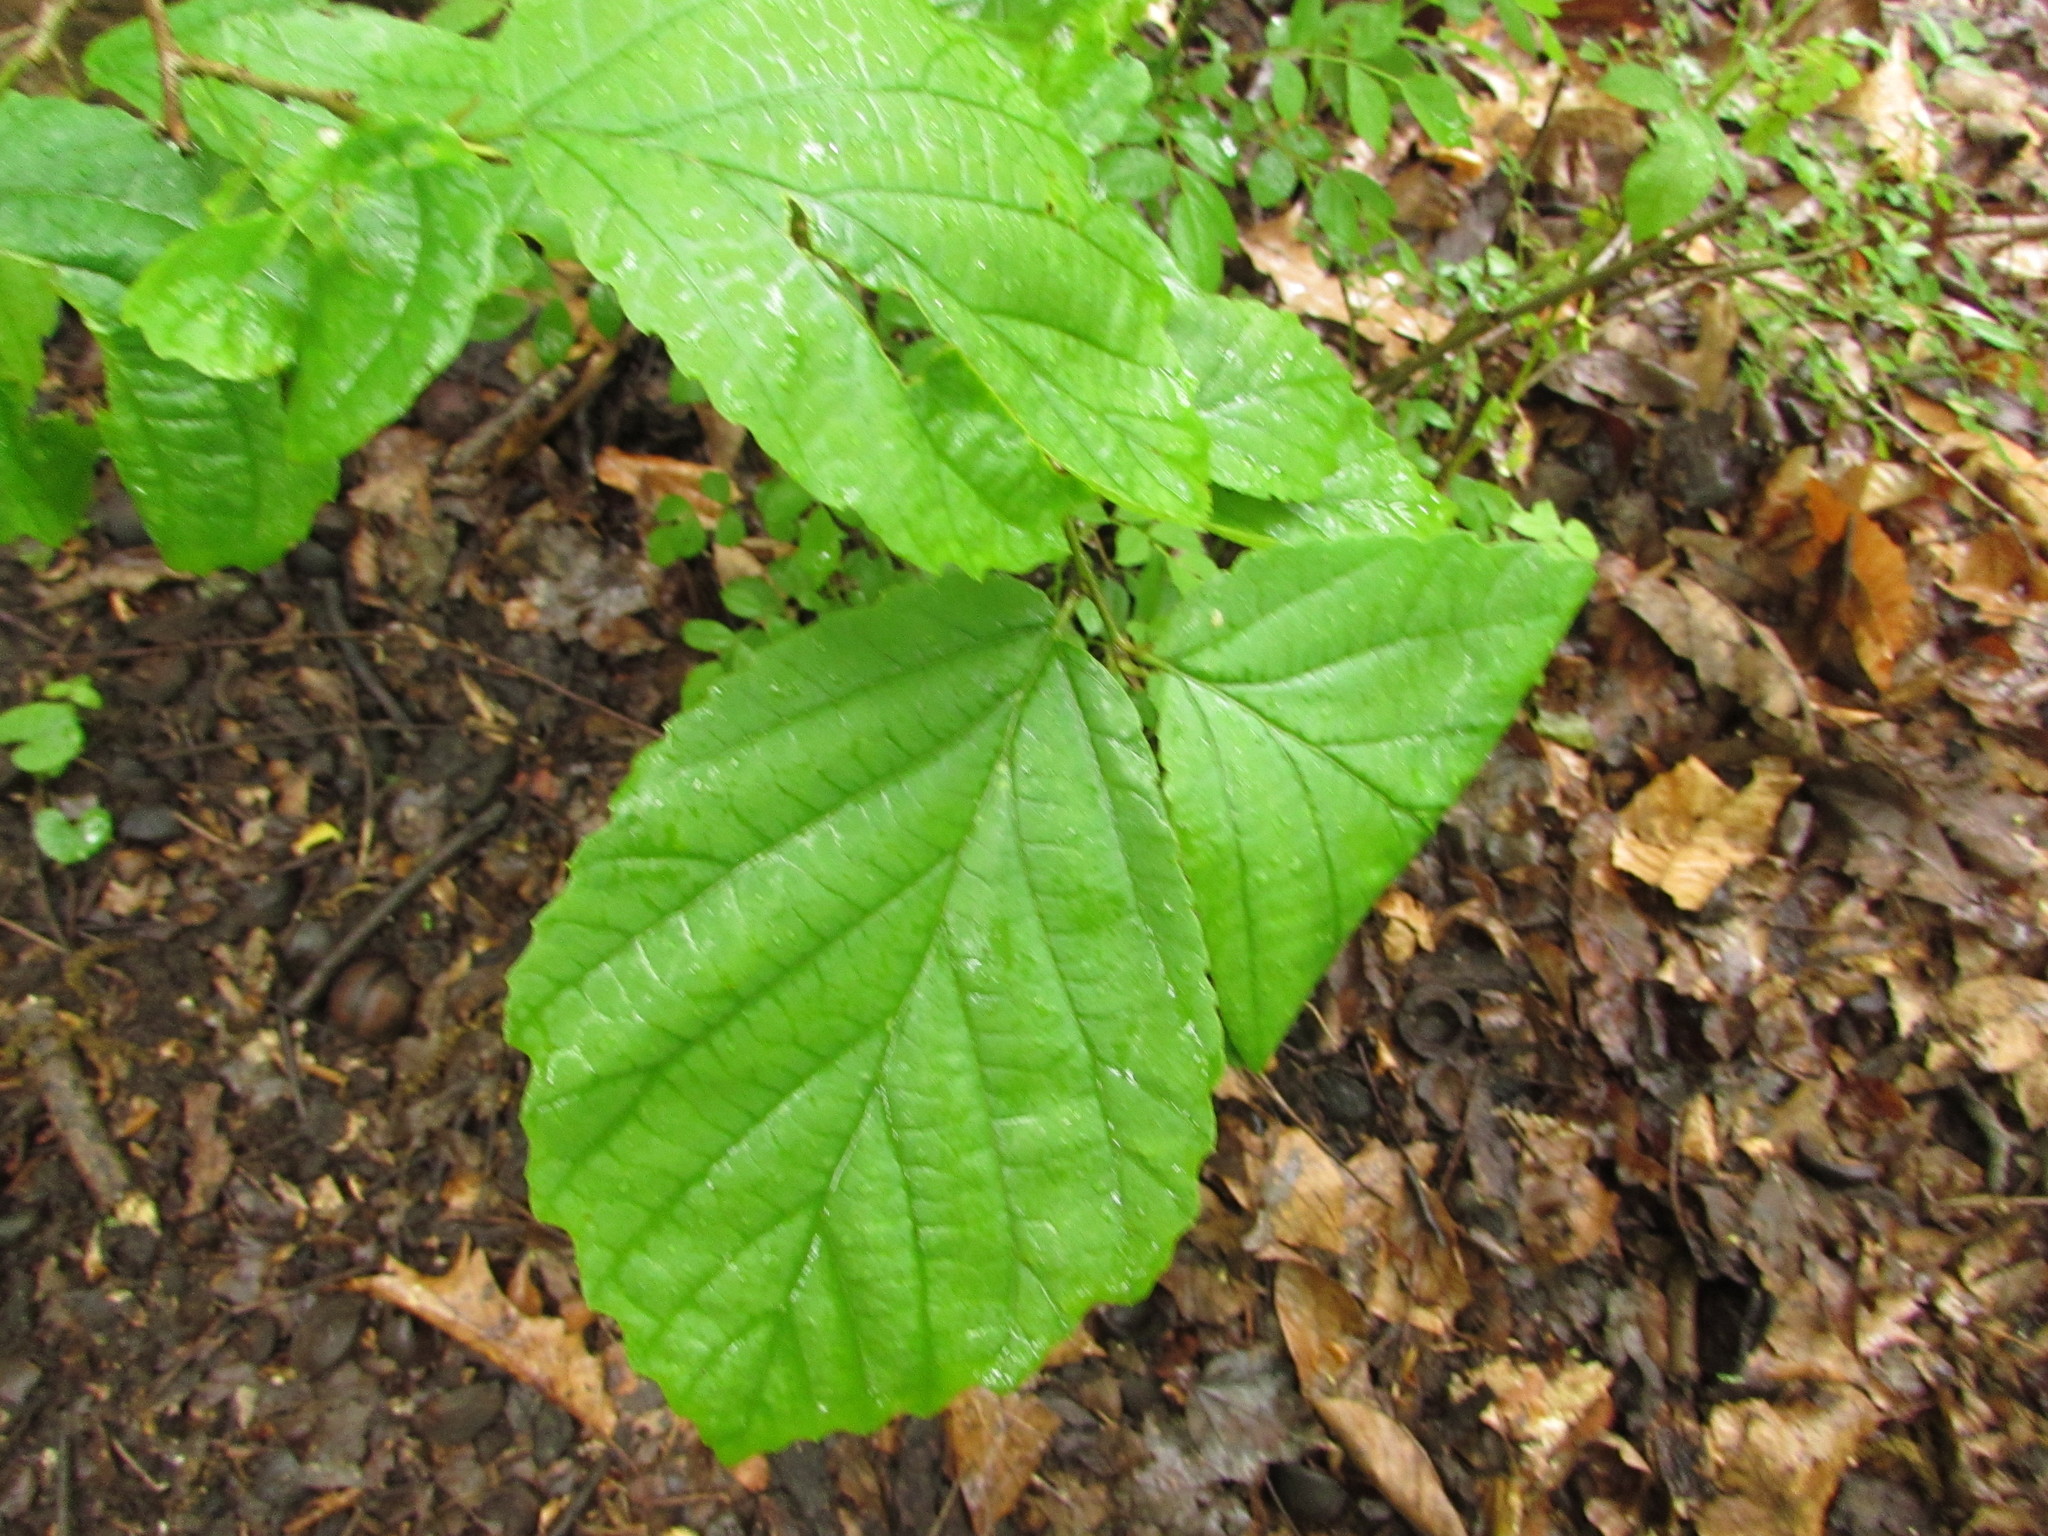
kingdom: Plantae
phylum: Tracheophyta
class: Magnoliopsida
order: Saxifragales
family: Hamamelidaceae
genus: Hamamelis
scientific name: Hamamelis virginiana
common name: Witch-hazel
